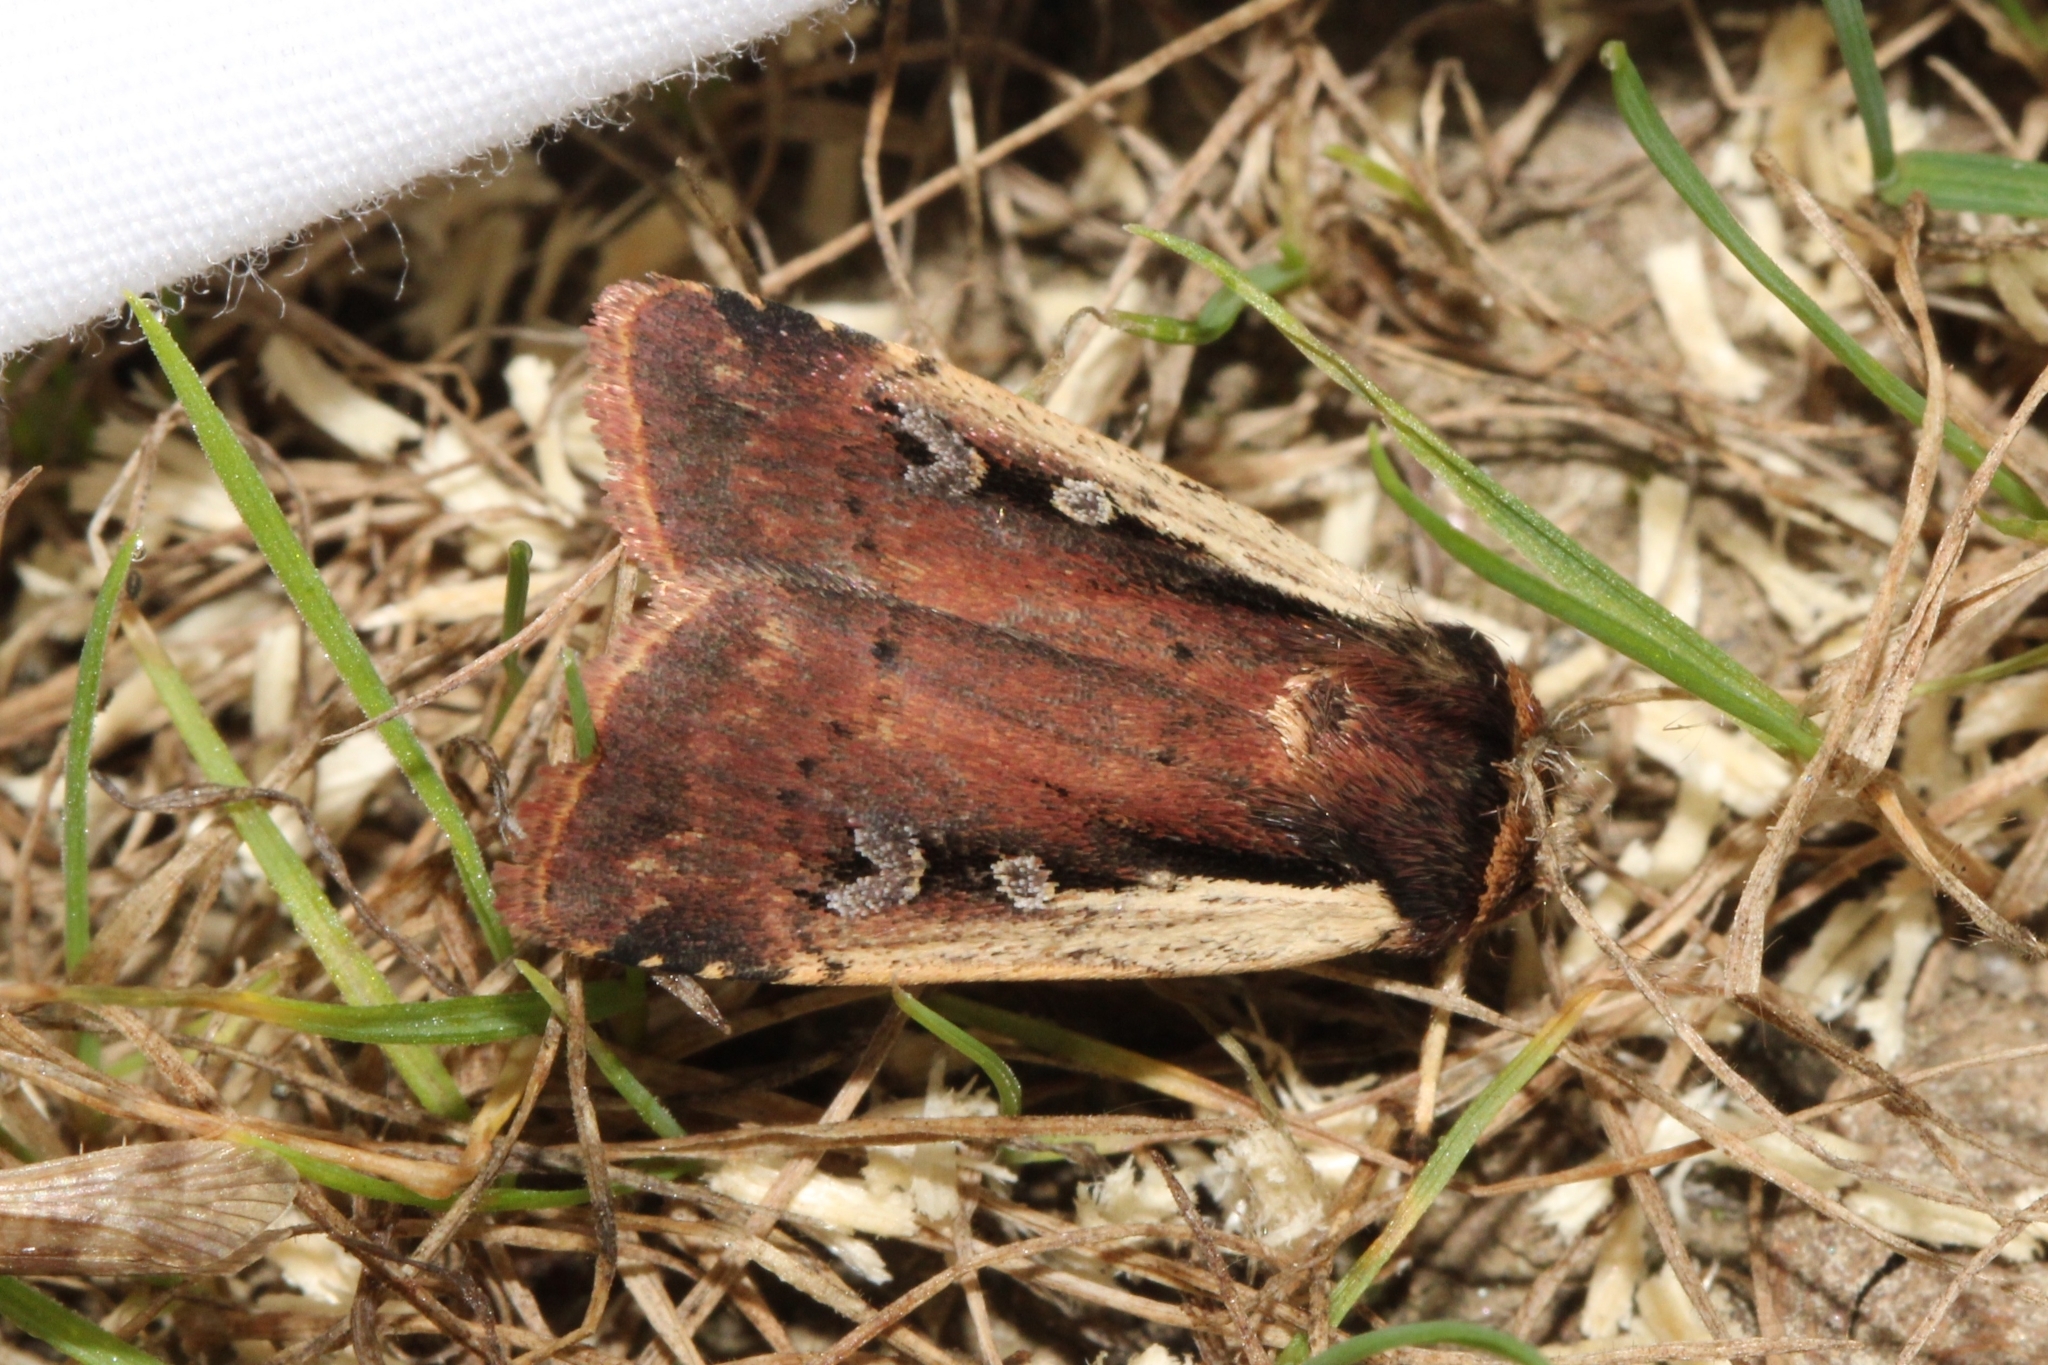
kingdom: Animalia
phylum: Arthropoda
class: Insecta
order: Lepidoptera
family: Noctuidae
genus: Ochropleura
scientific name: Ochropleura implecta
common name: Flame-shouldered dart
